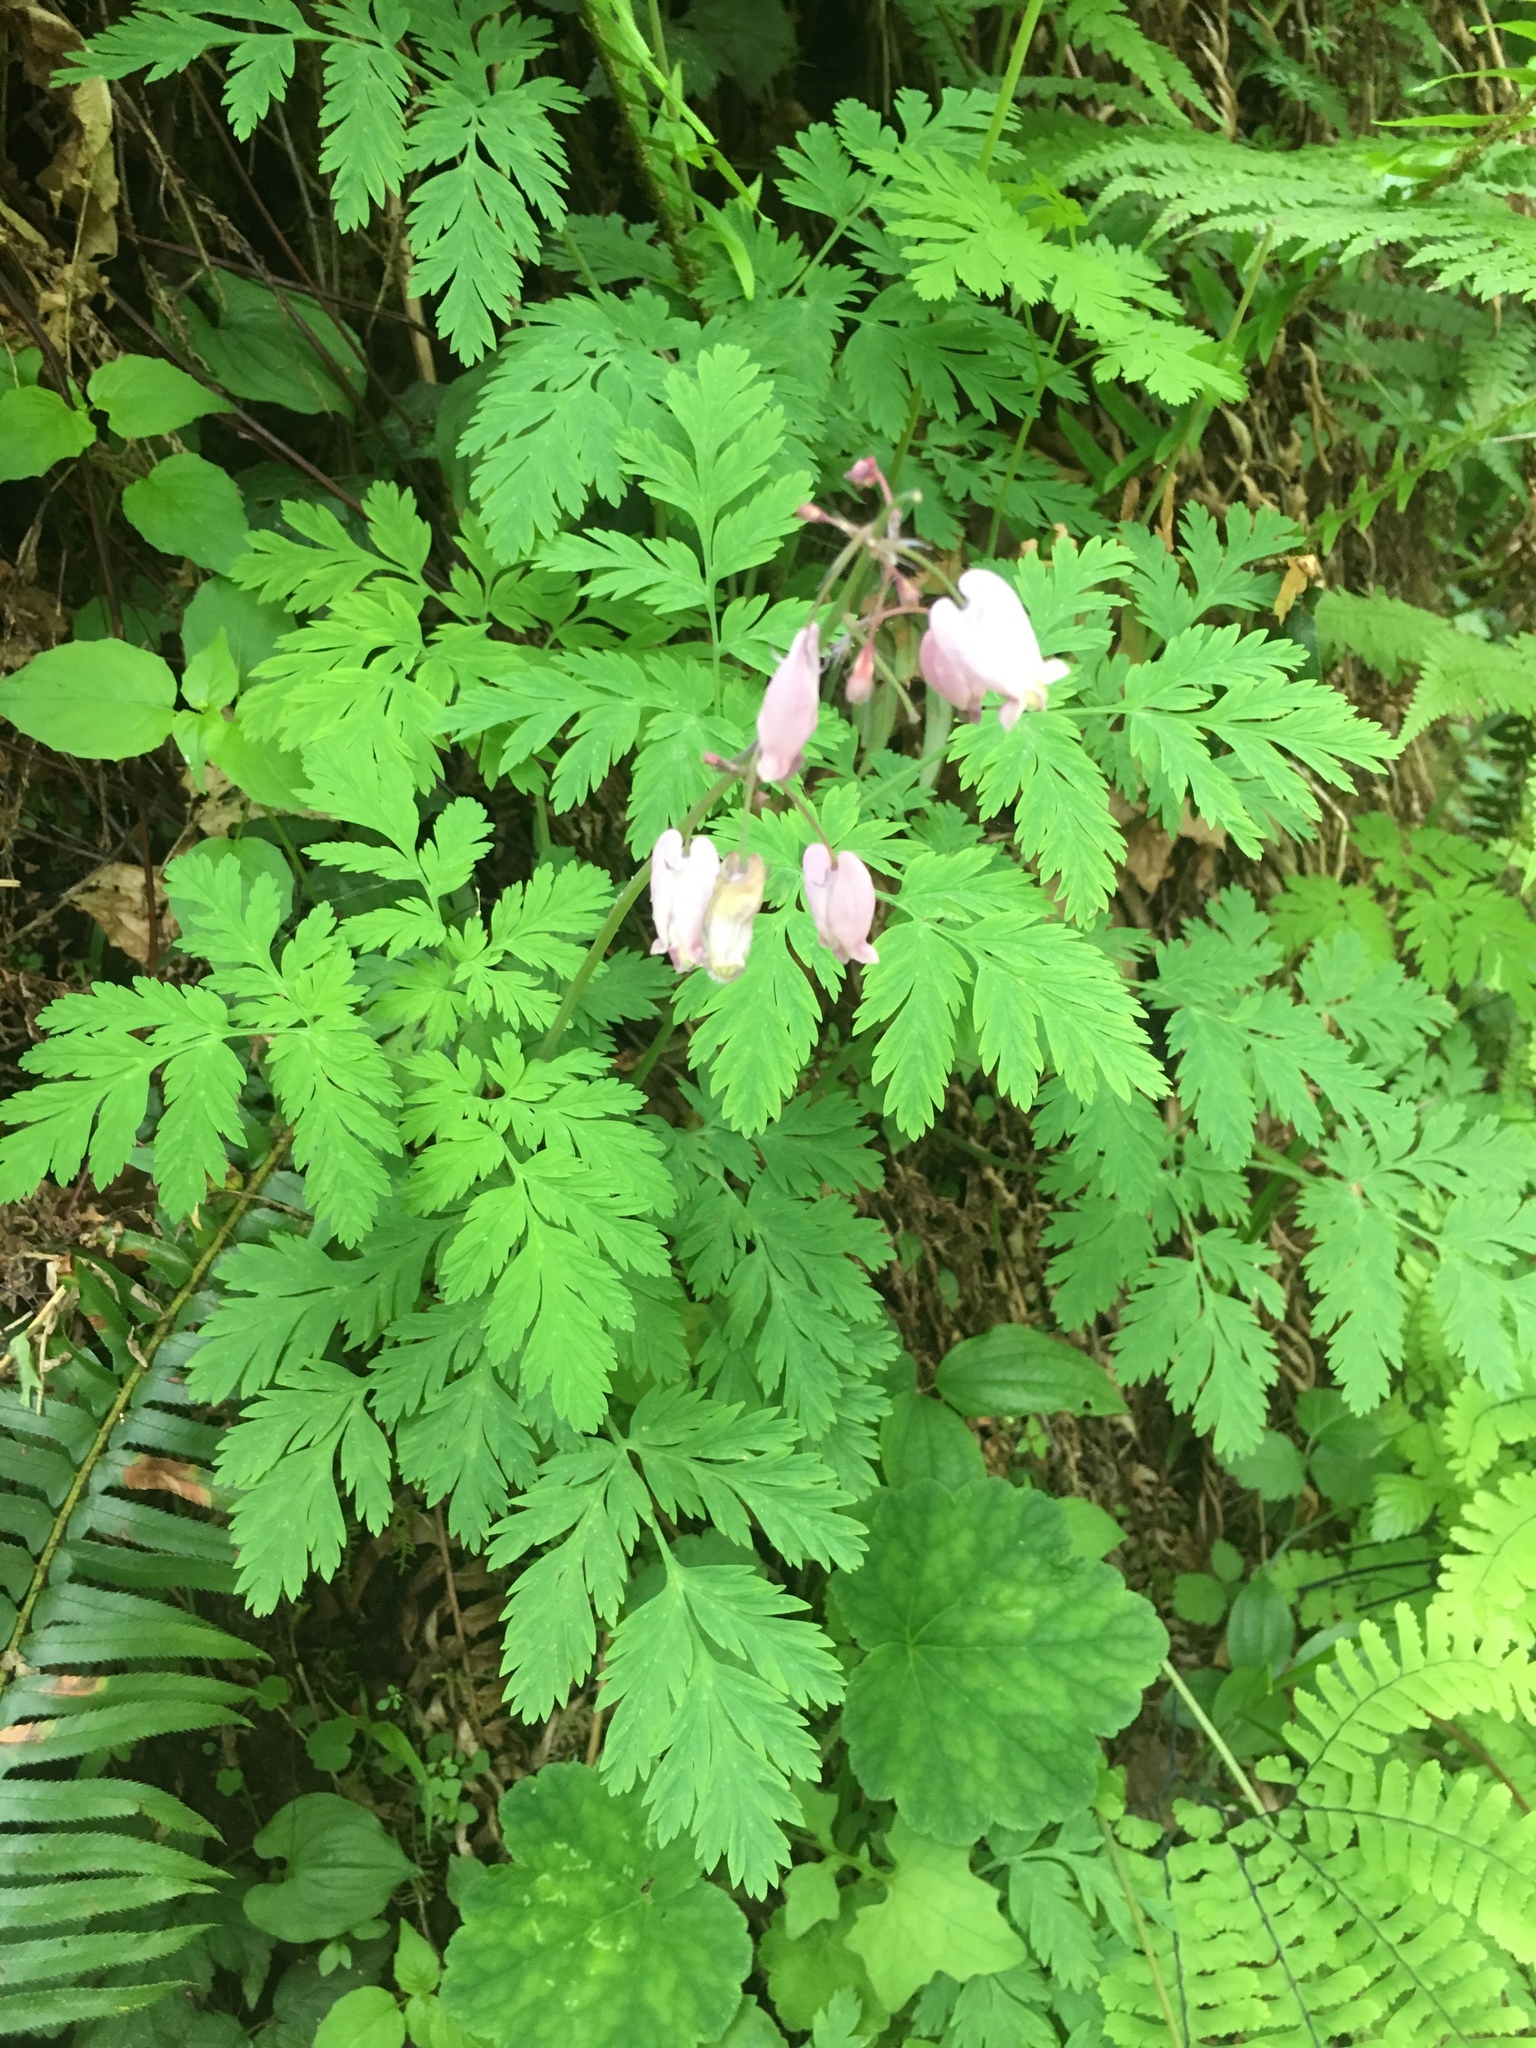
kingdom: Plantae
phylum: Tracheophyta
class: Magnoliopsida
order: Ranunculales
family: Papaveraceae
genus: Dicentra
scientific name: Dicentra formosa
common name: Bleeding-heart
